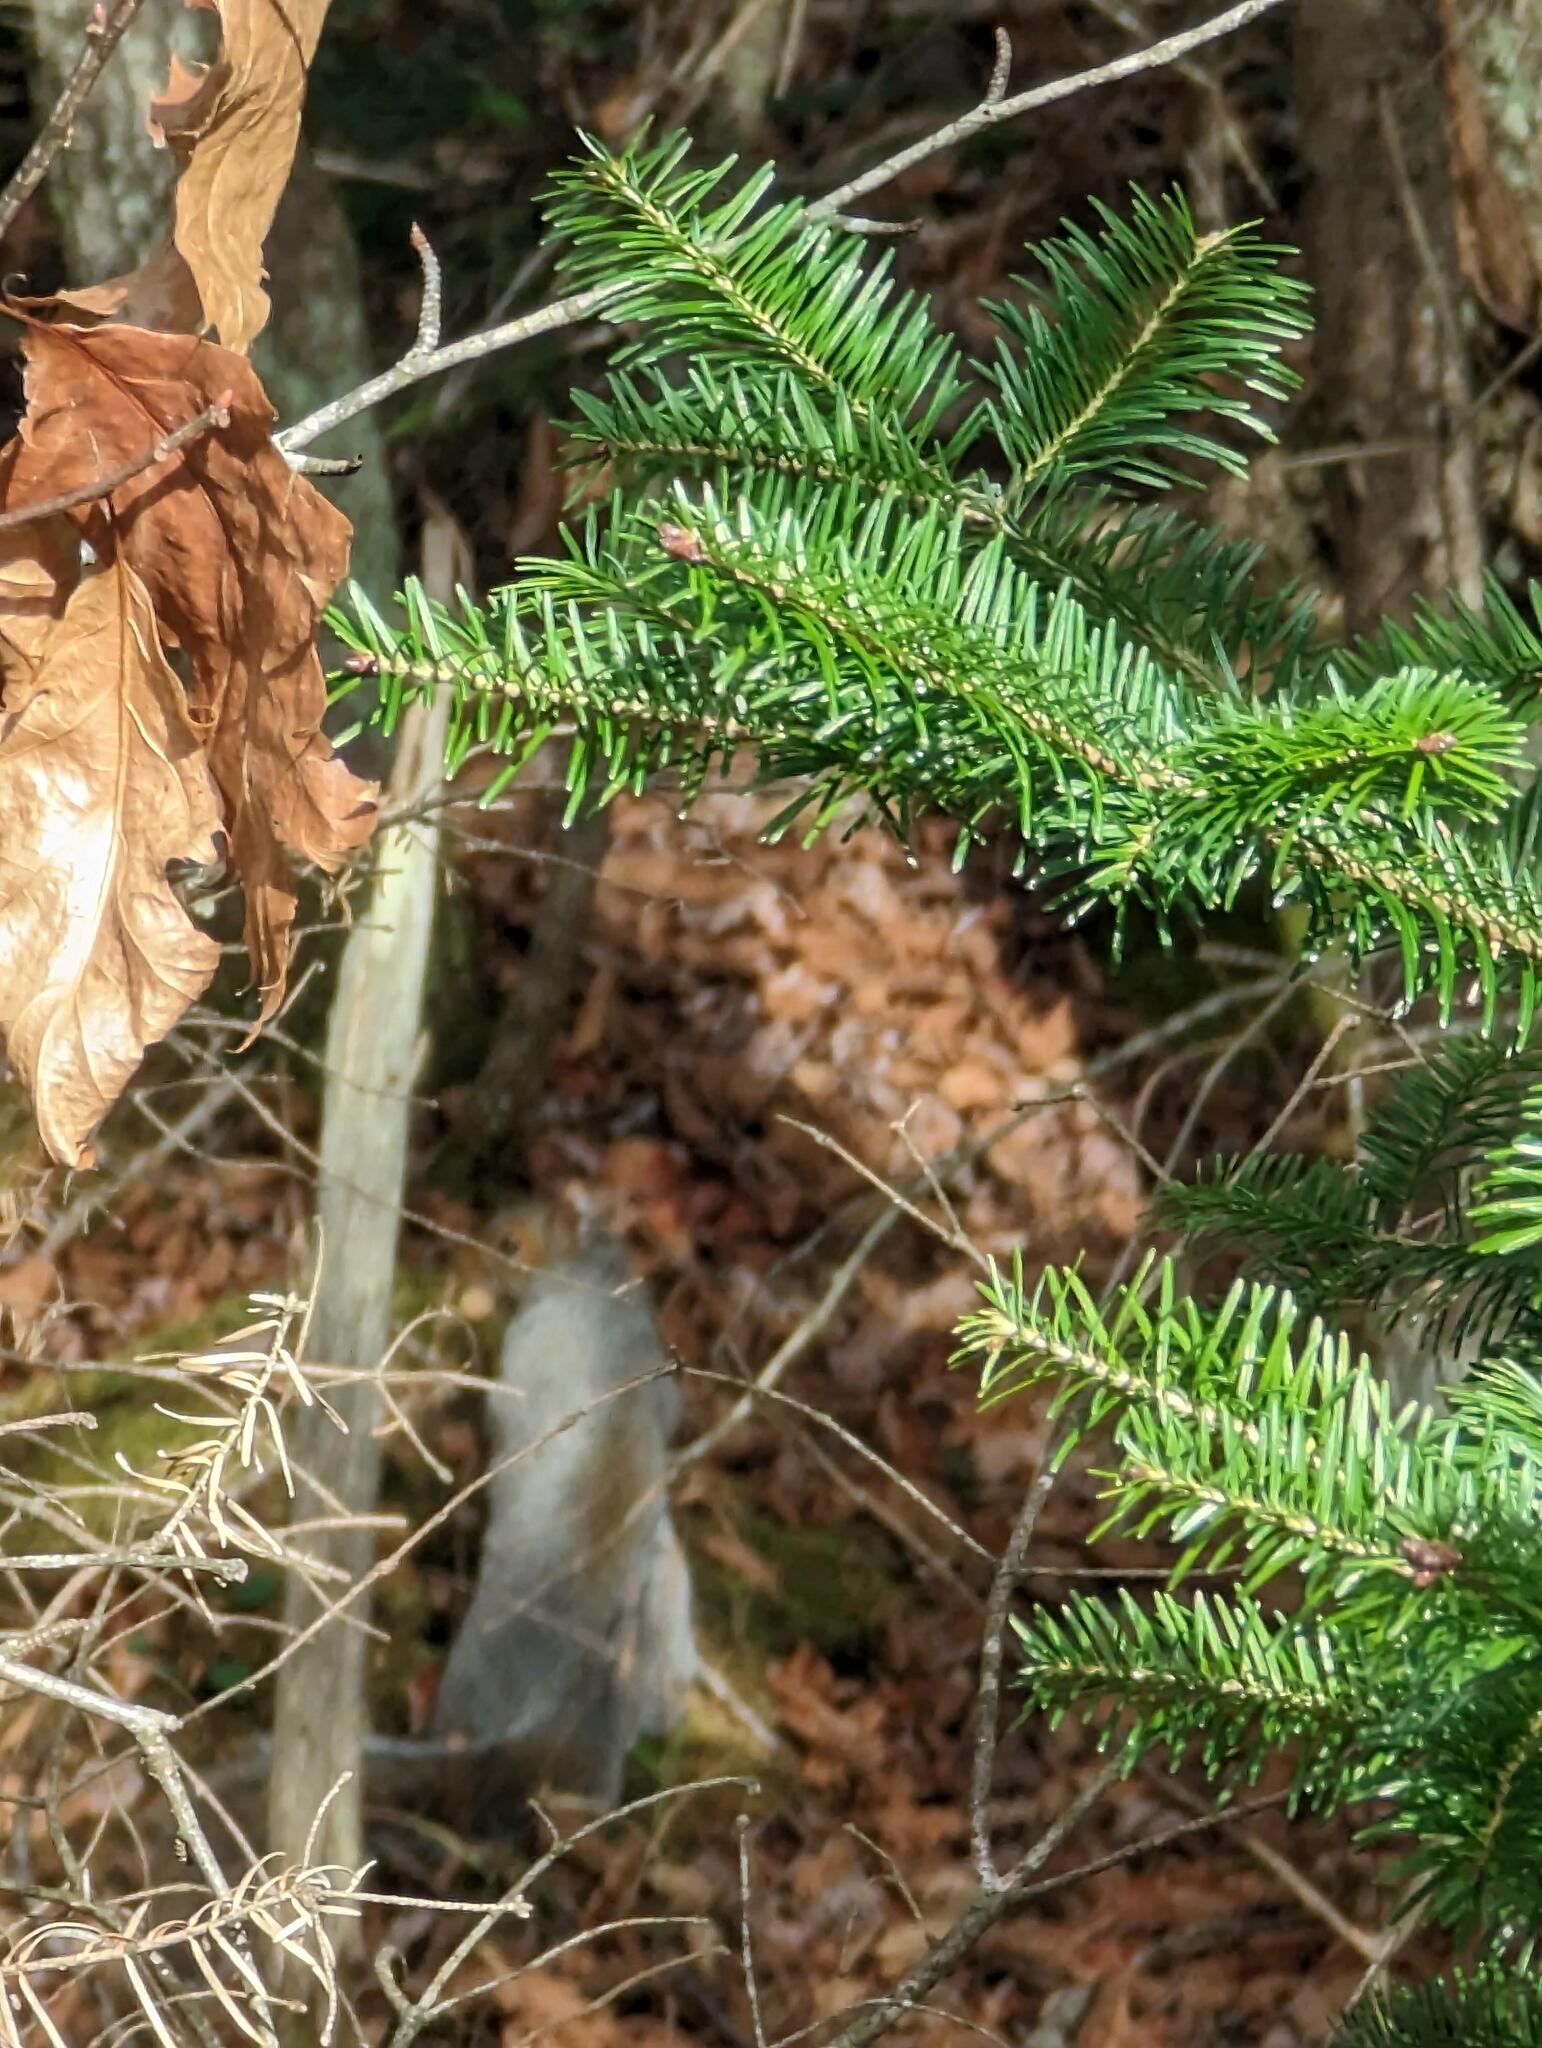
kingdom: Plantae
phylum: Tracheophyta
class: Pinopsida
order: Pinales
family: Pinaceae
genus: Abies
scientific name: Abies balsamea
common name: Balsam fir
